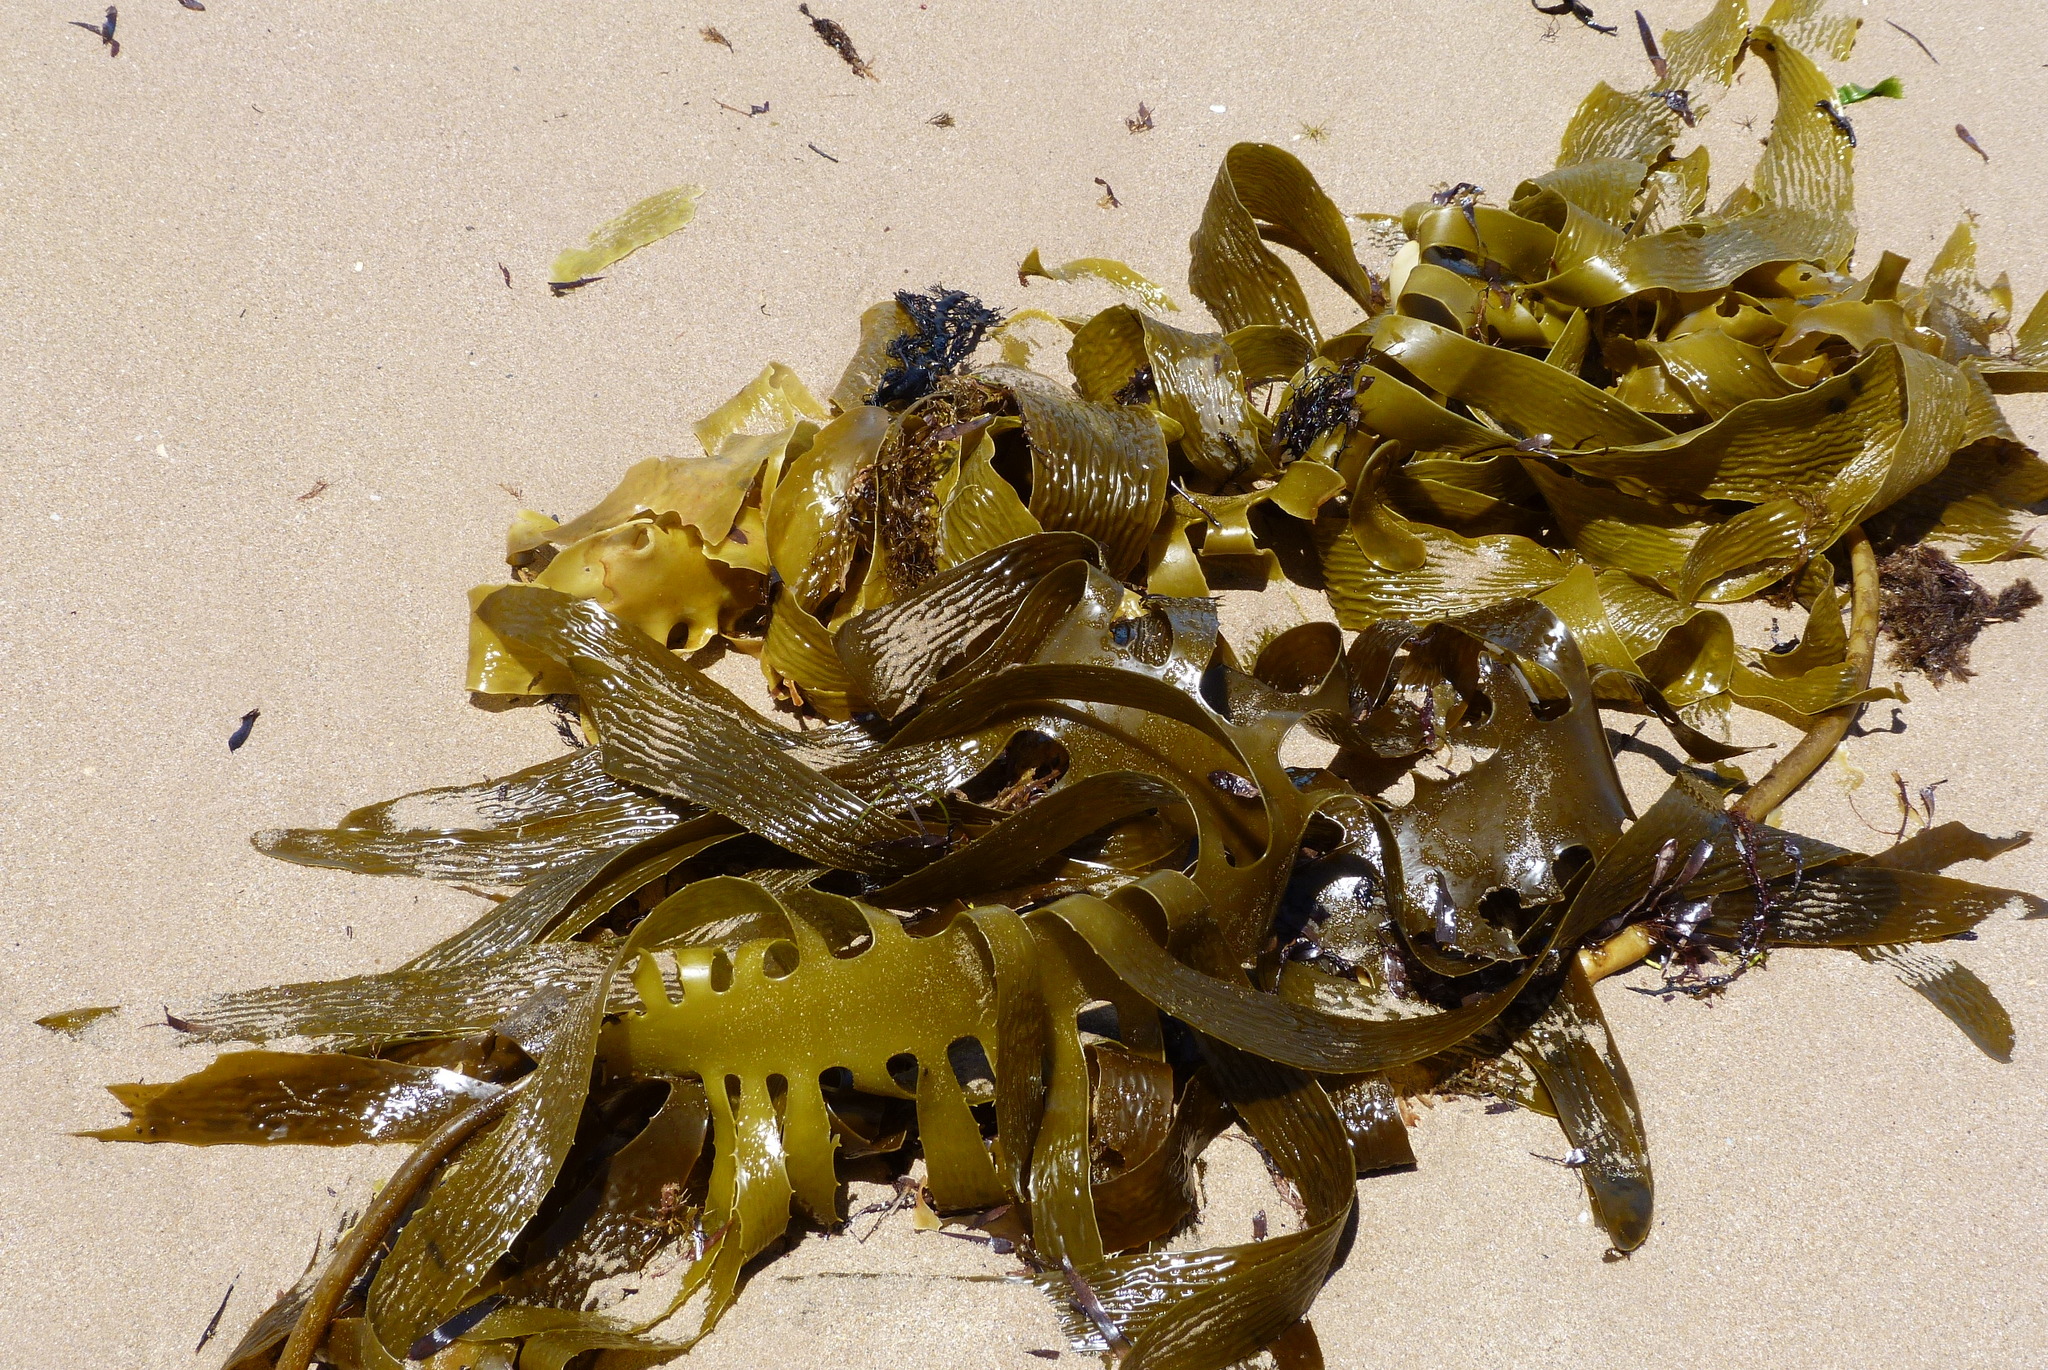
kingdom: Chromista
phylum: Ochrophyta
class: Phaeophyceae
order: Laminariales
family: Lessoniaceae
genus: Ecklonia
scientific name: Ecklonia radiata
